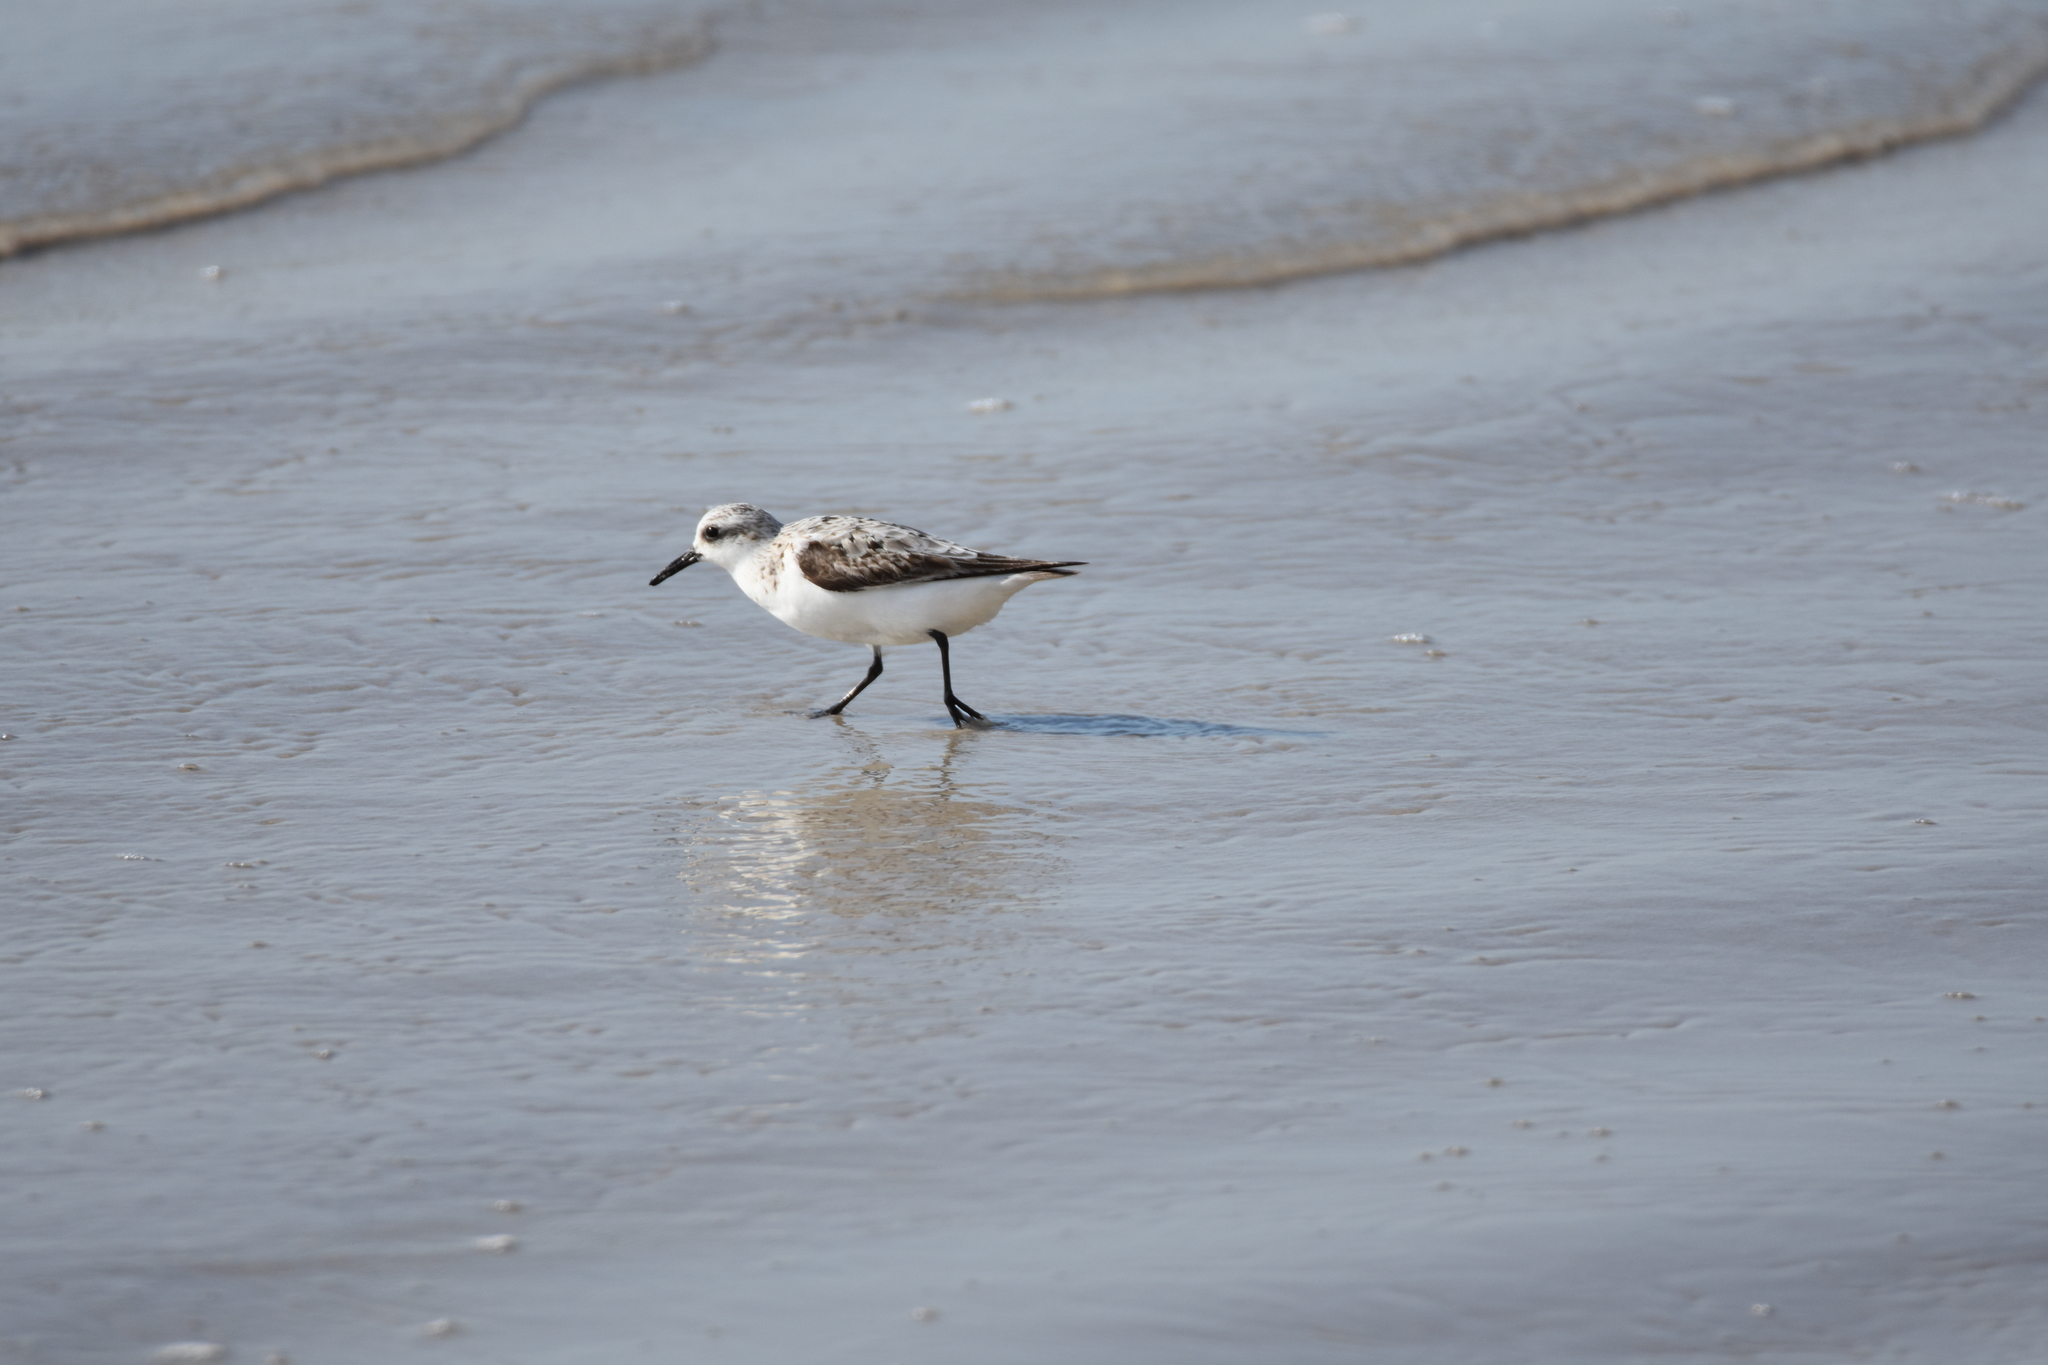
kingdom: Animalia
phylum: Chordata
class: Aves
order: Charadriiformes
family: Scolopacidae
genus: Calidris
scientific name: Calidris alba
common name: Sanderling
